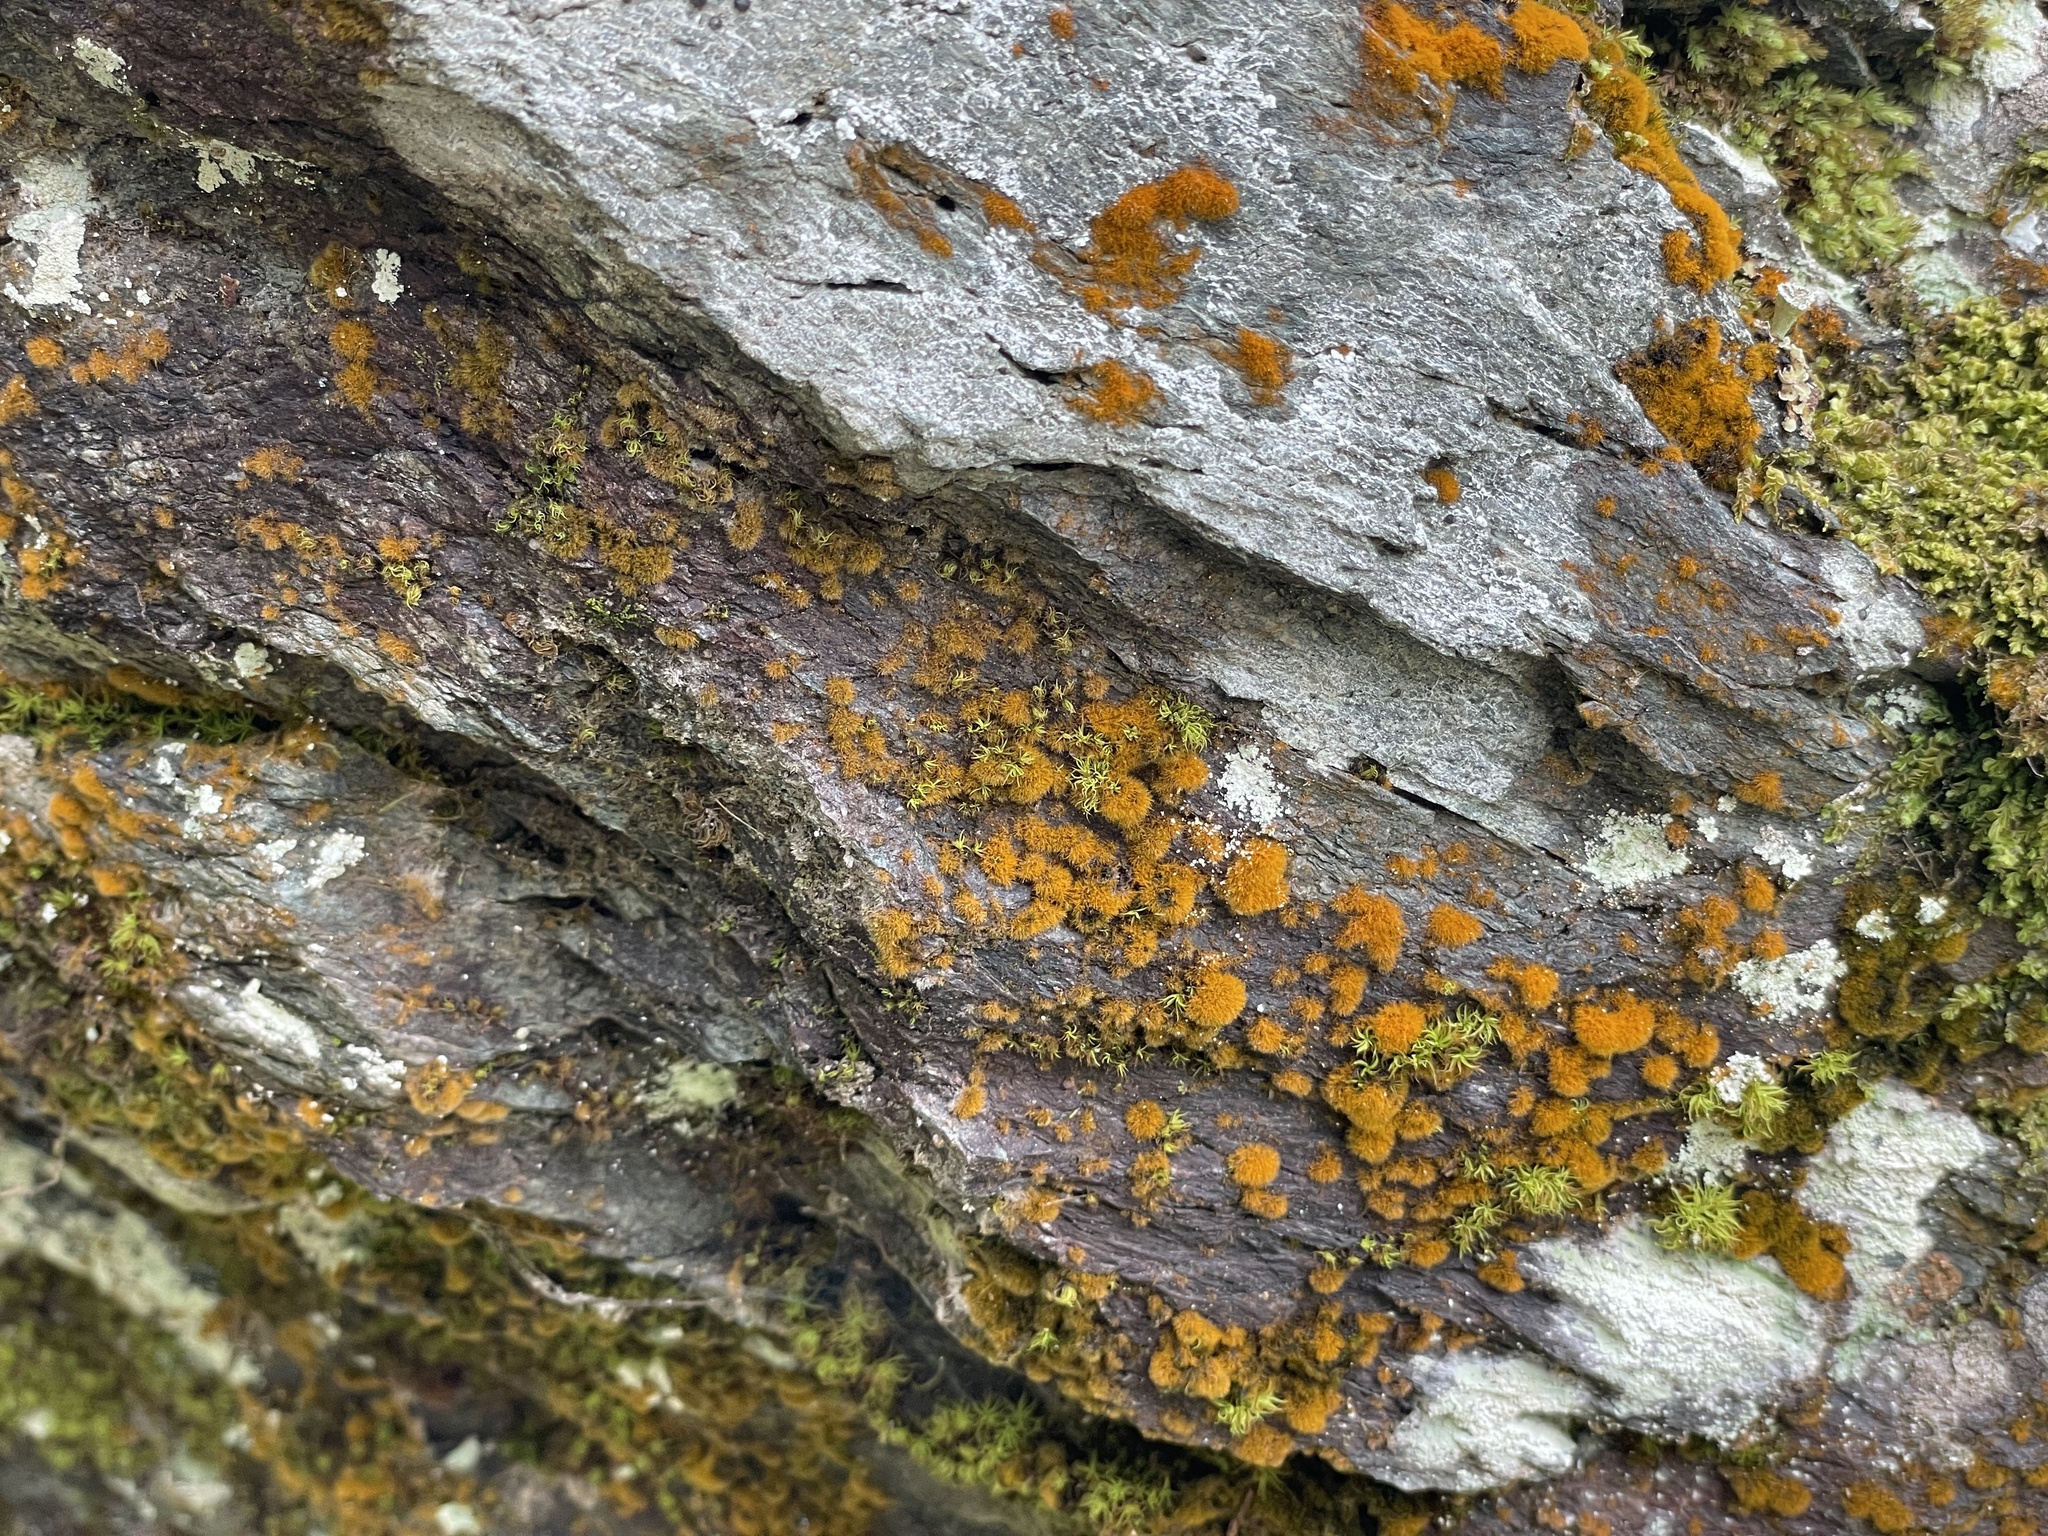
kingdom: Plantae
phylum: Chlorophyta
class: Ulvophyceae
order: Trentepohliales
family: Trentepohliaceae
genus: Trentepohlia
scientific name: Trentepohlia aurea
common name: Orange rock hair
